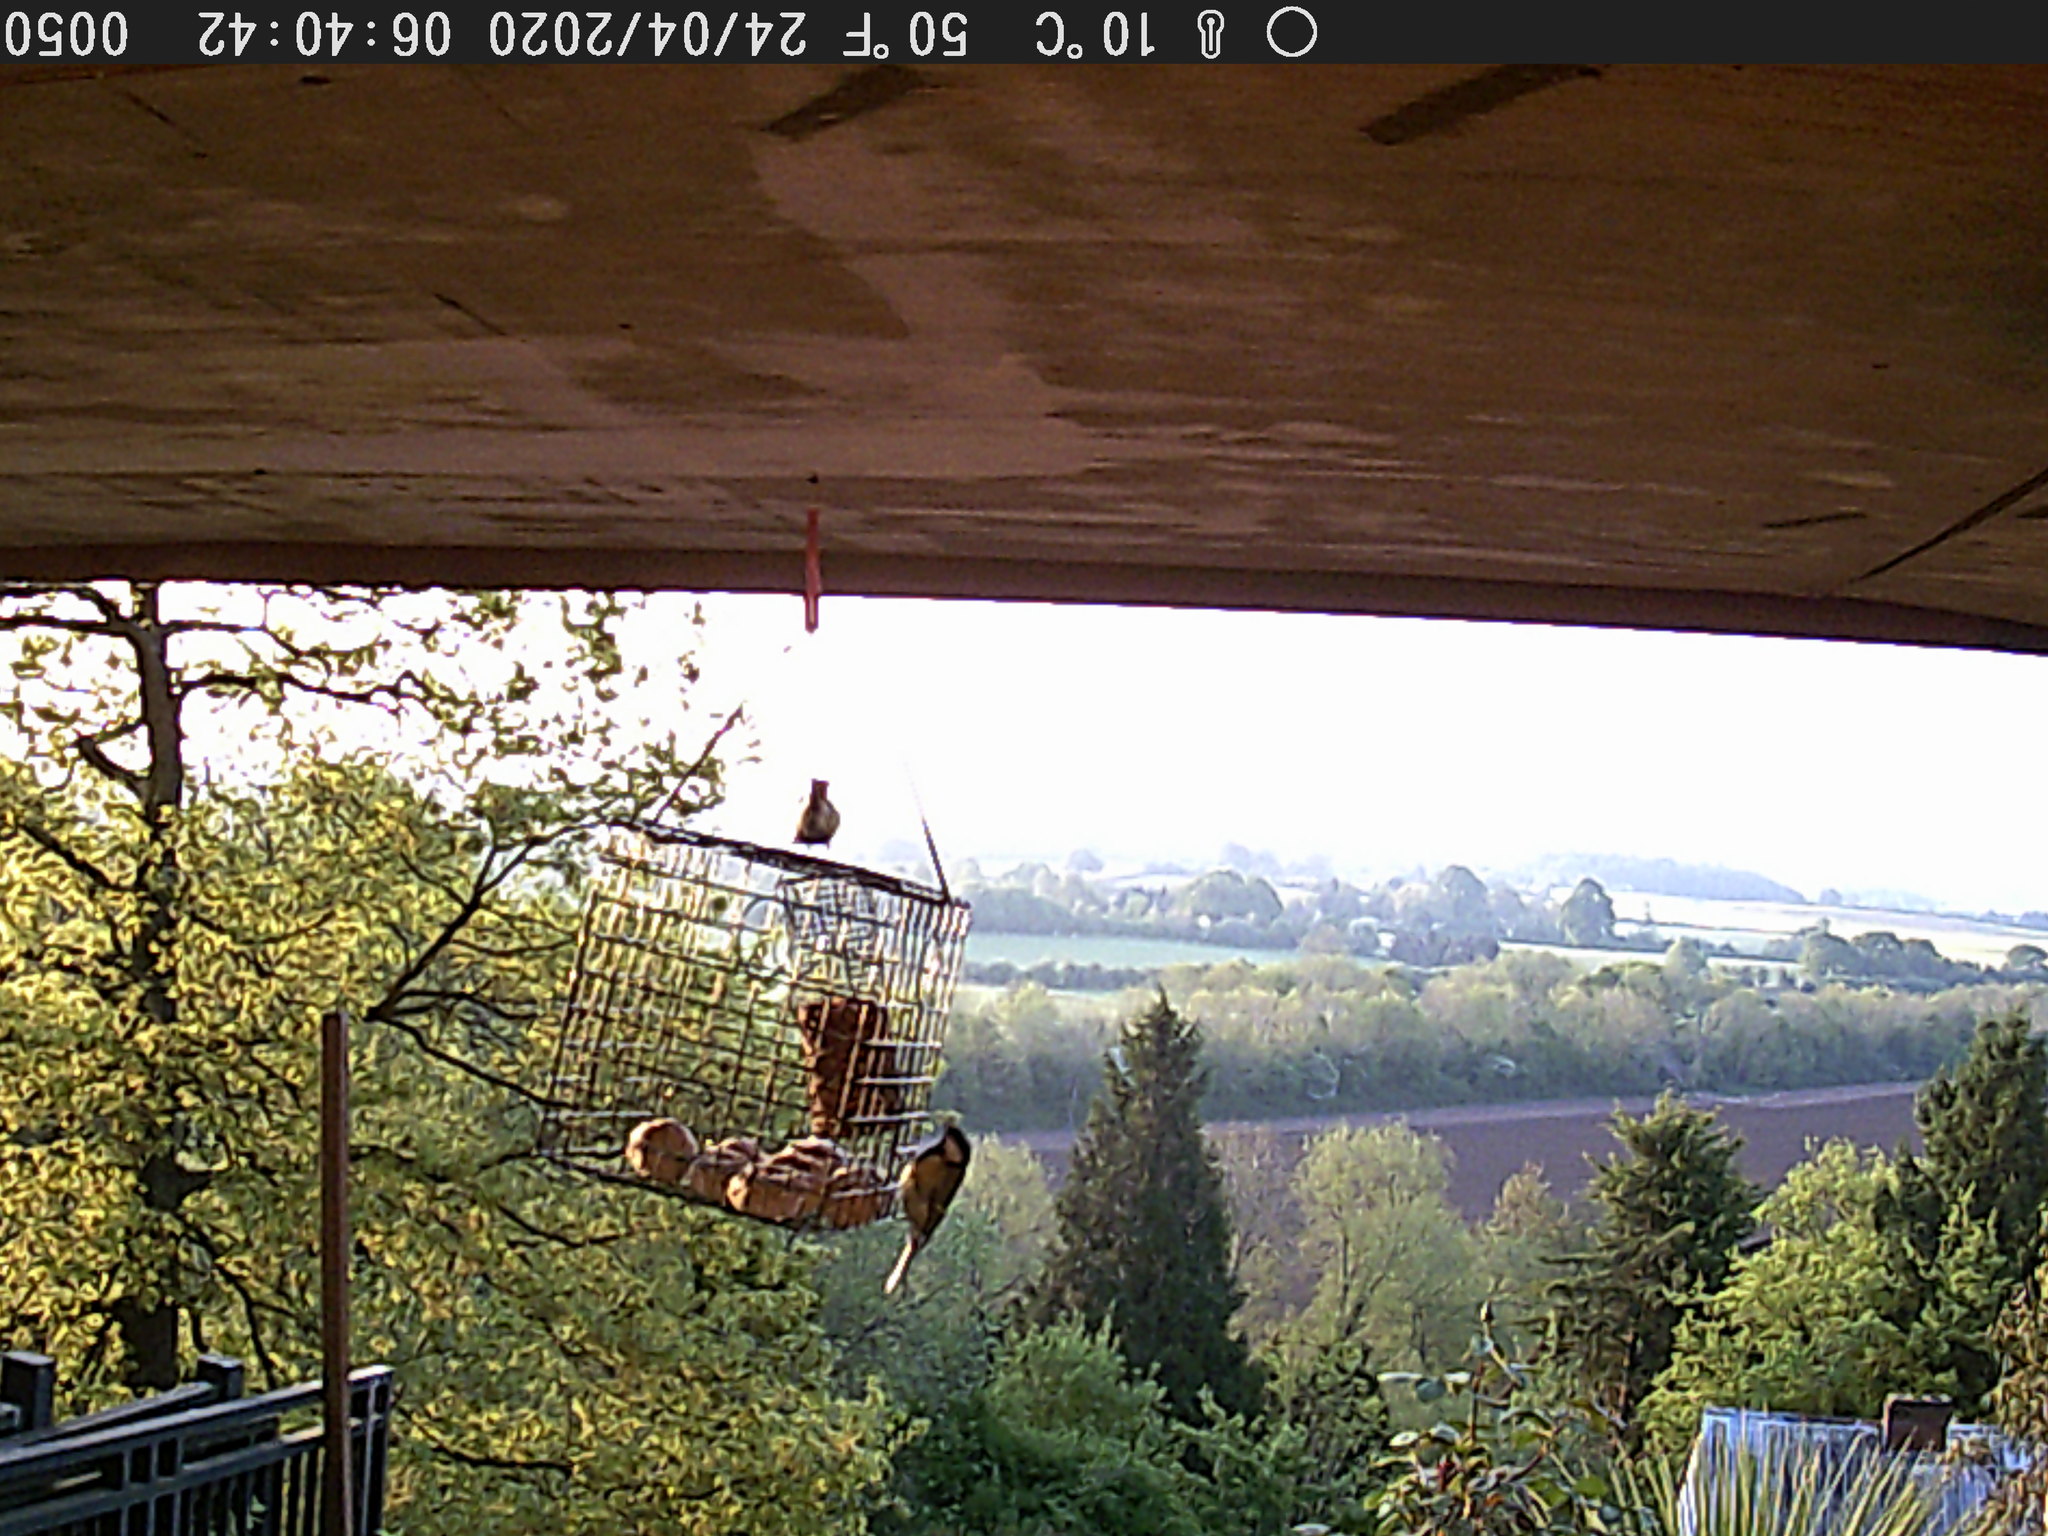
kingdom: Animalia
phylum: Chordata
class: Aves
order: Passeriformes
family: Paridae
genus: Parus
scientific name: Parus major
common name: Great tit
